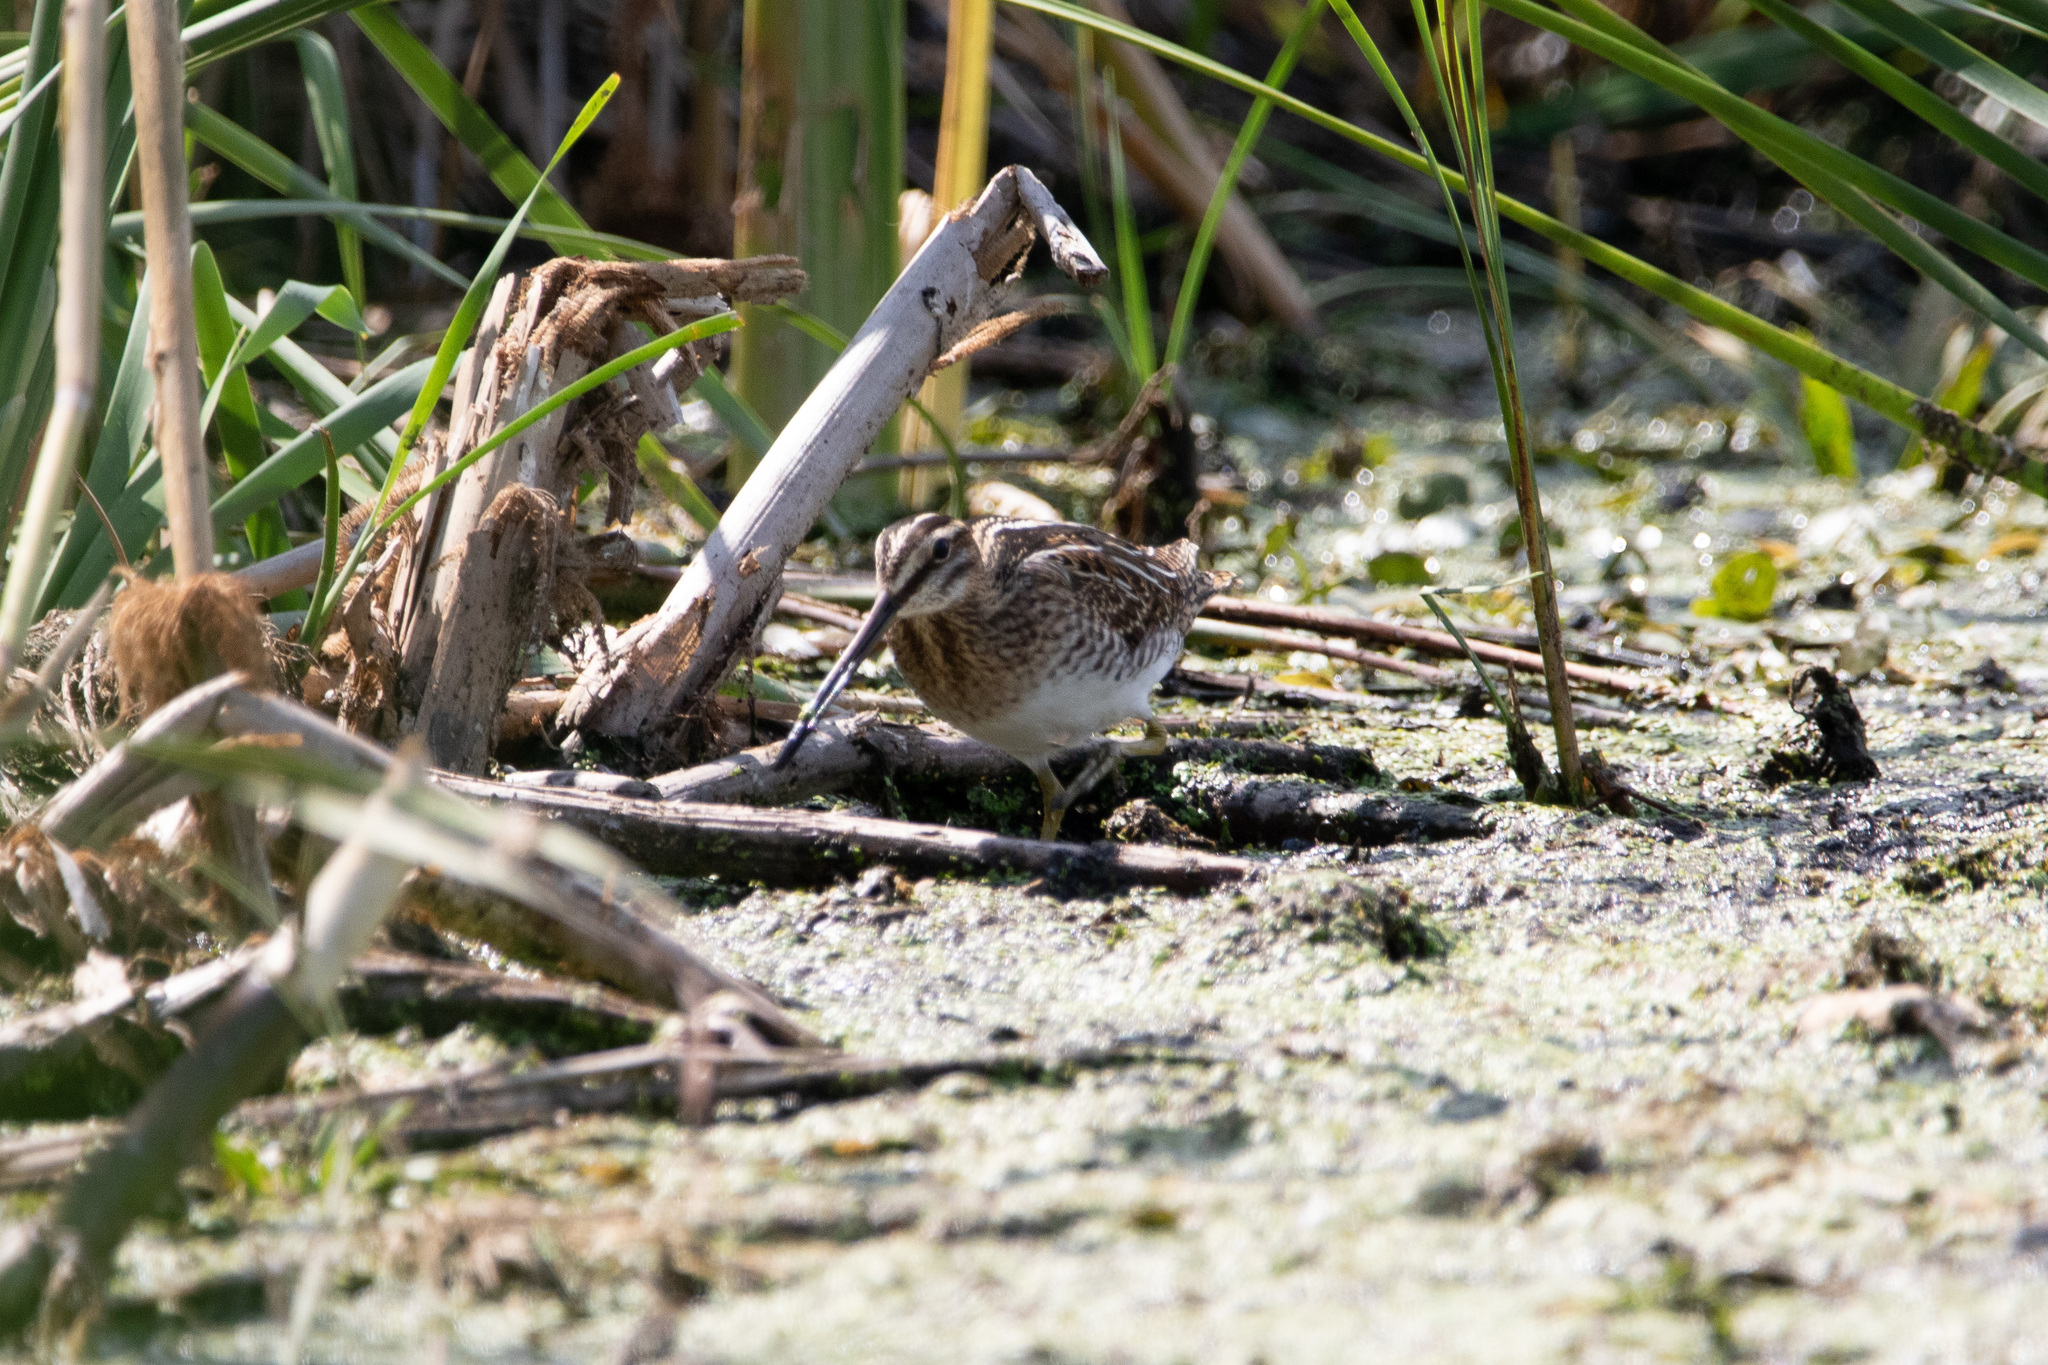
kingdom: Animalia
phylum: Chordata
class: Aves
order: Charadriiformes
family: Scolopacidae
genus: Gallinago
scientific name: Gallinago gallinago
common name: Common snipe
